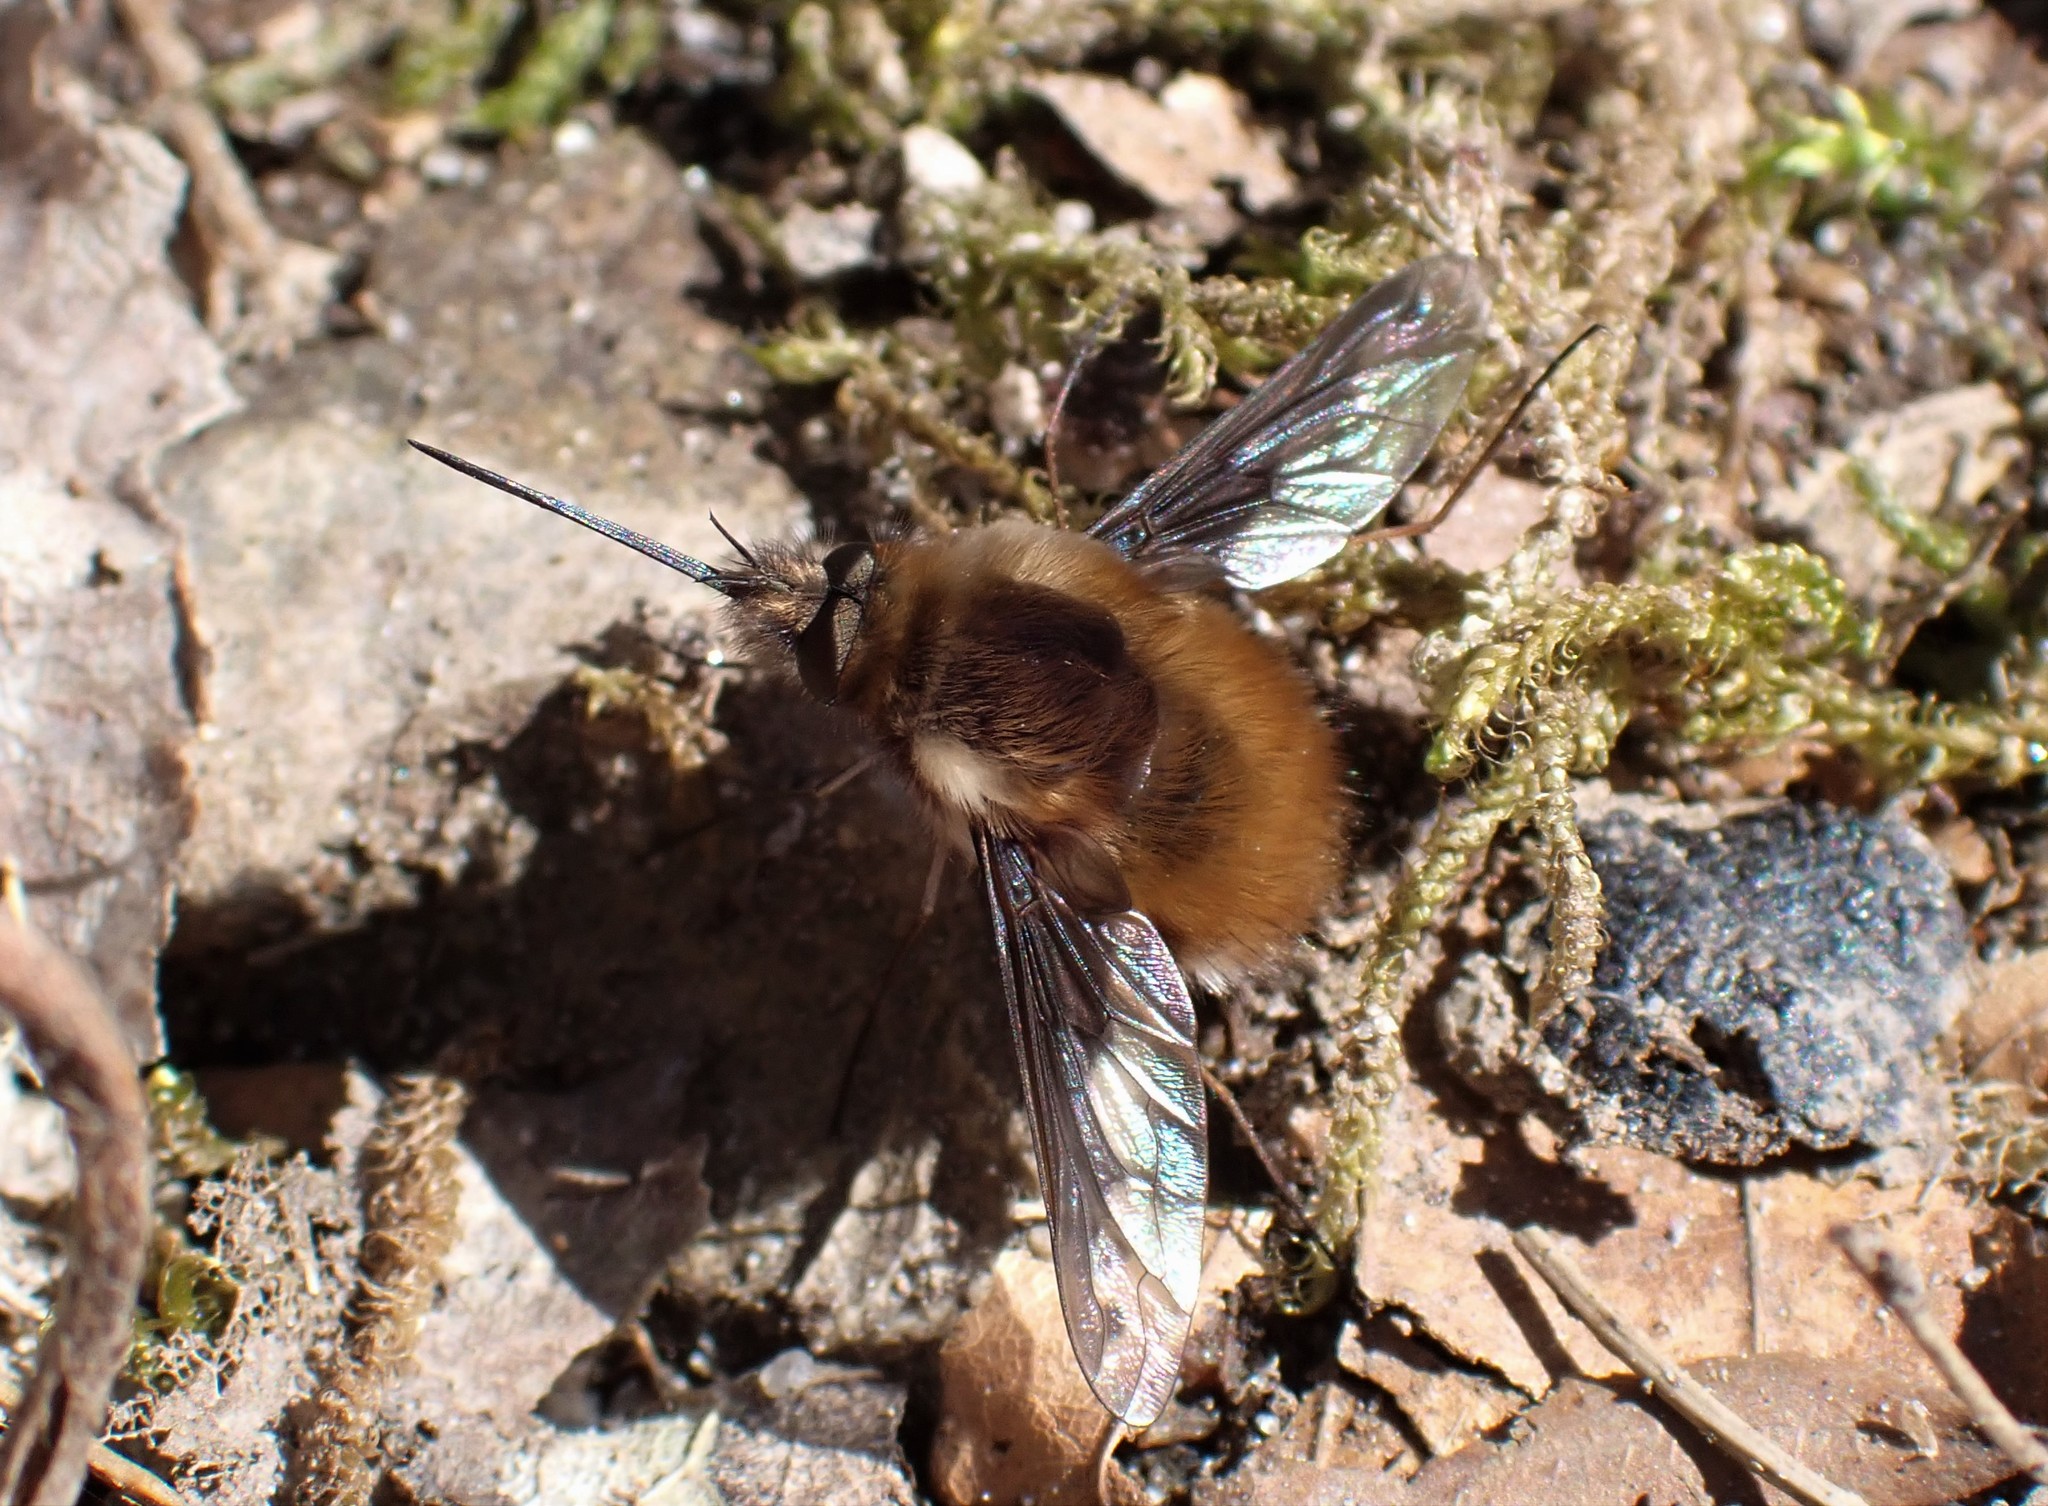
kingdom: Animalia
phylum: Arthropoda
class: Insecta
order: Diptera
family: Bombyliidae
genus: Bombylius
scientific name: Bombylius major
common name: Bee fly
